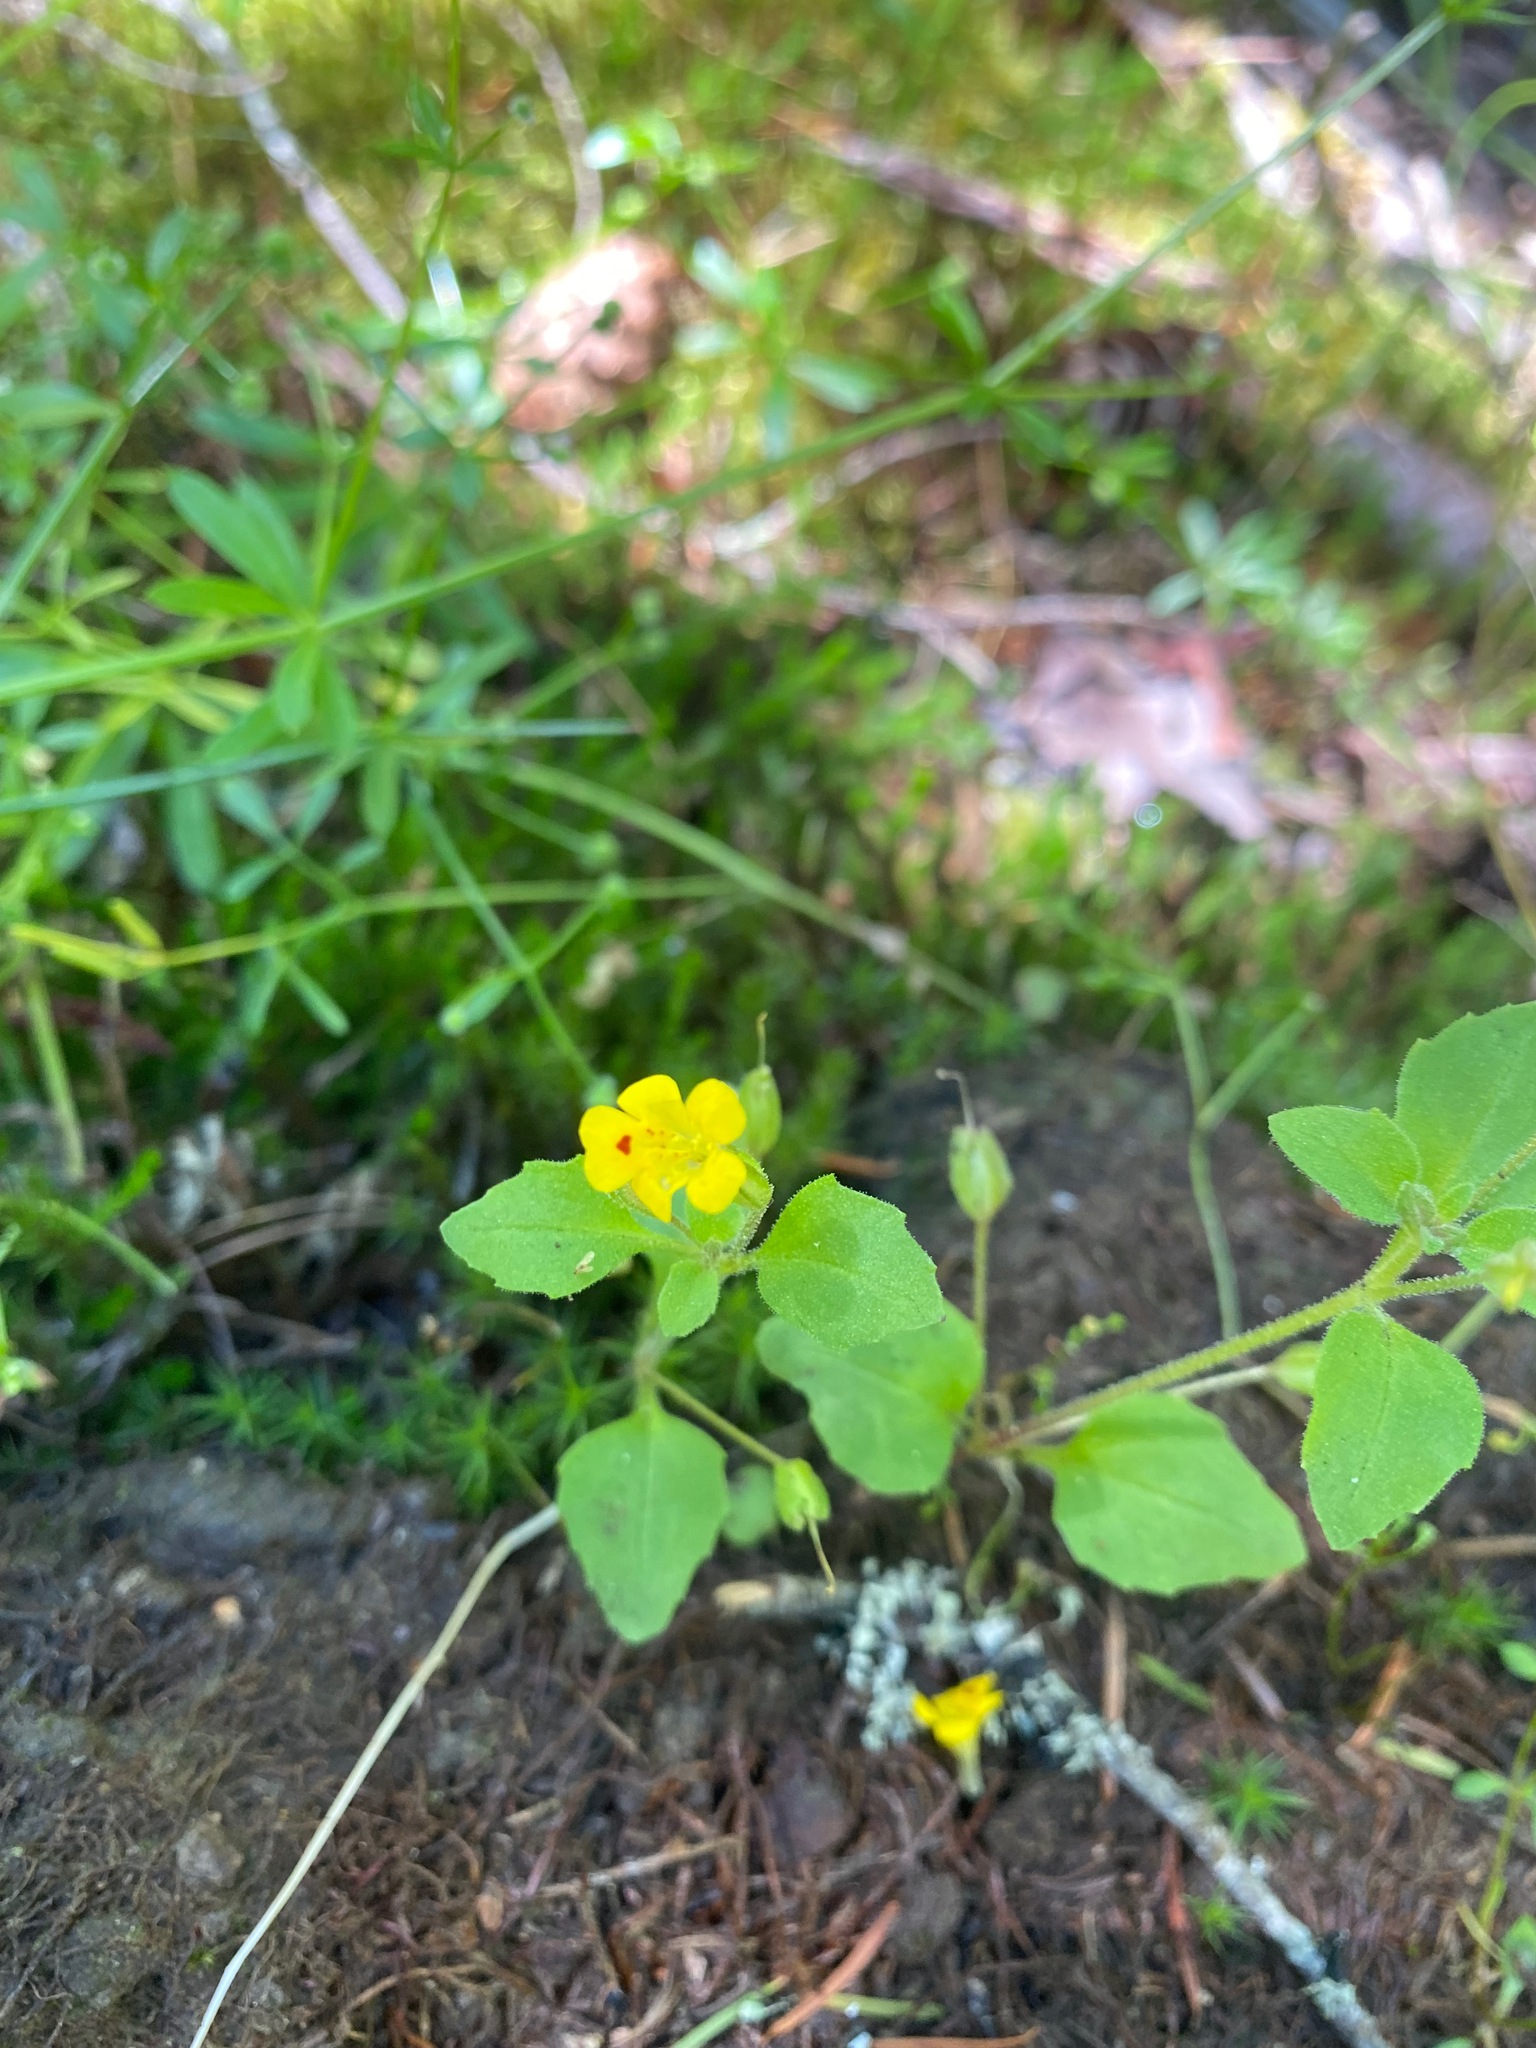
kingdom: Plantae
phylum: Tracheophyta
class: Magnoliopsida
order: Lamiales
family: Phrymaceae
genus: Erythranthe
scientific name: Erythranthe alsinoides
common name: Chickweed monkeyflower
